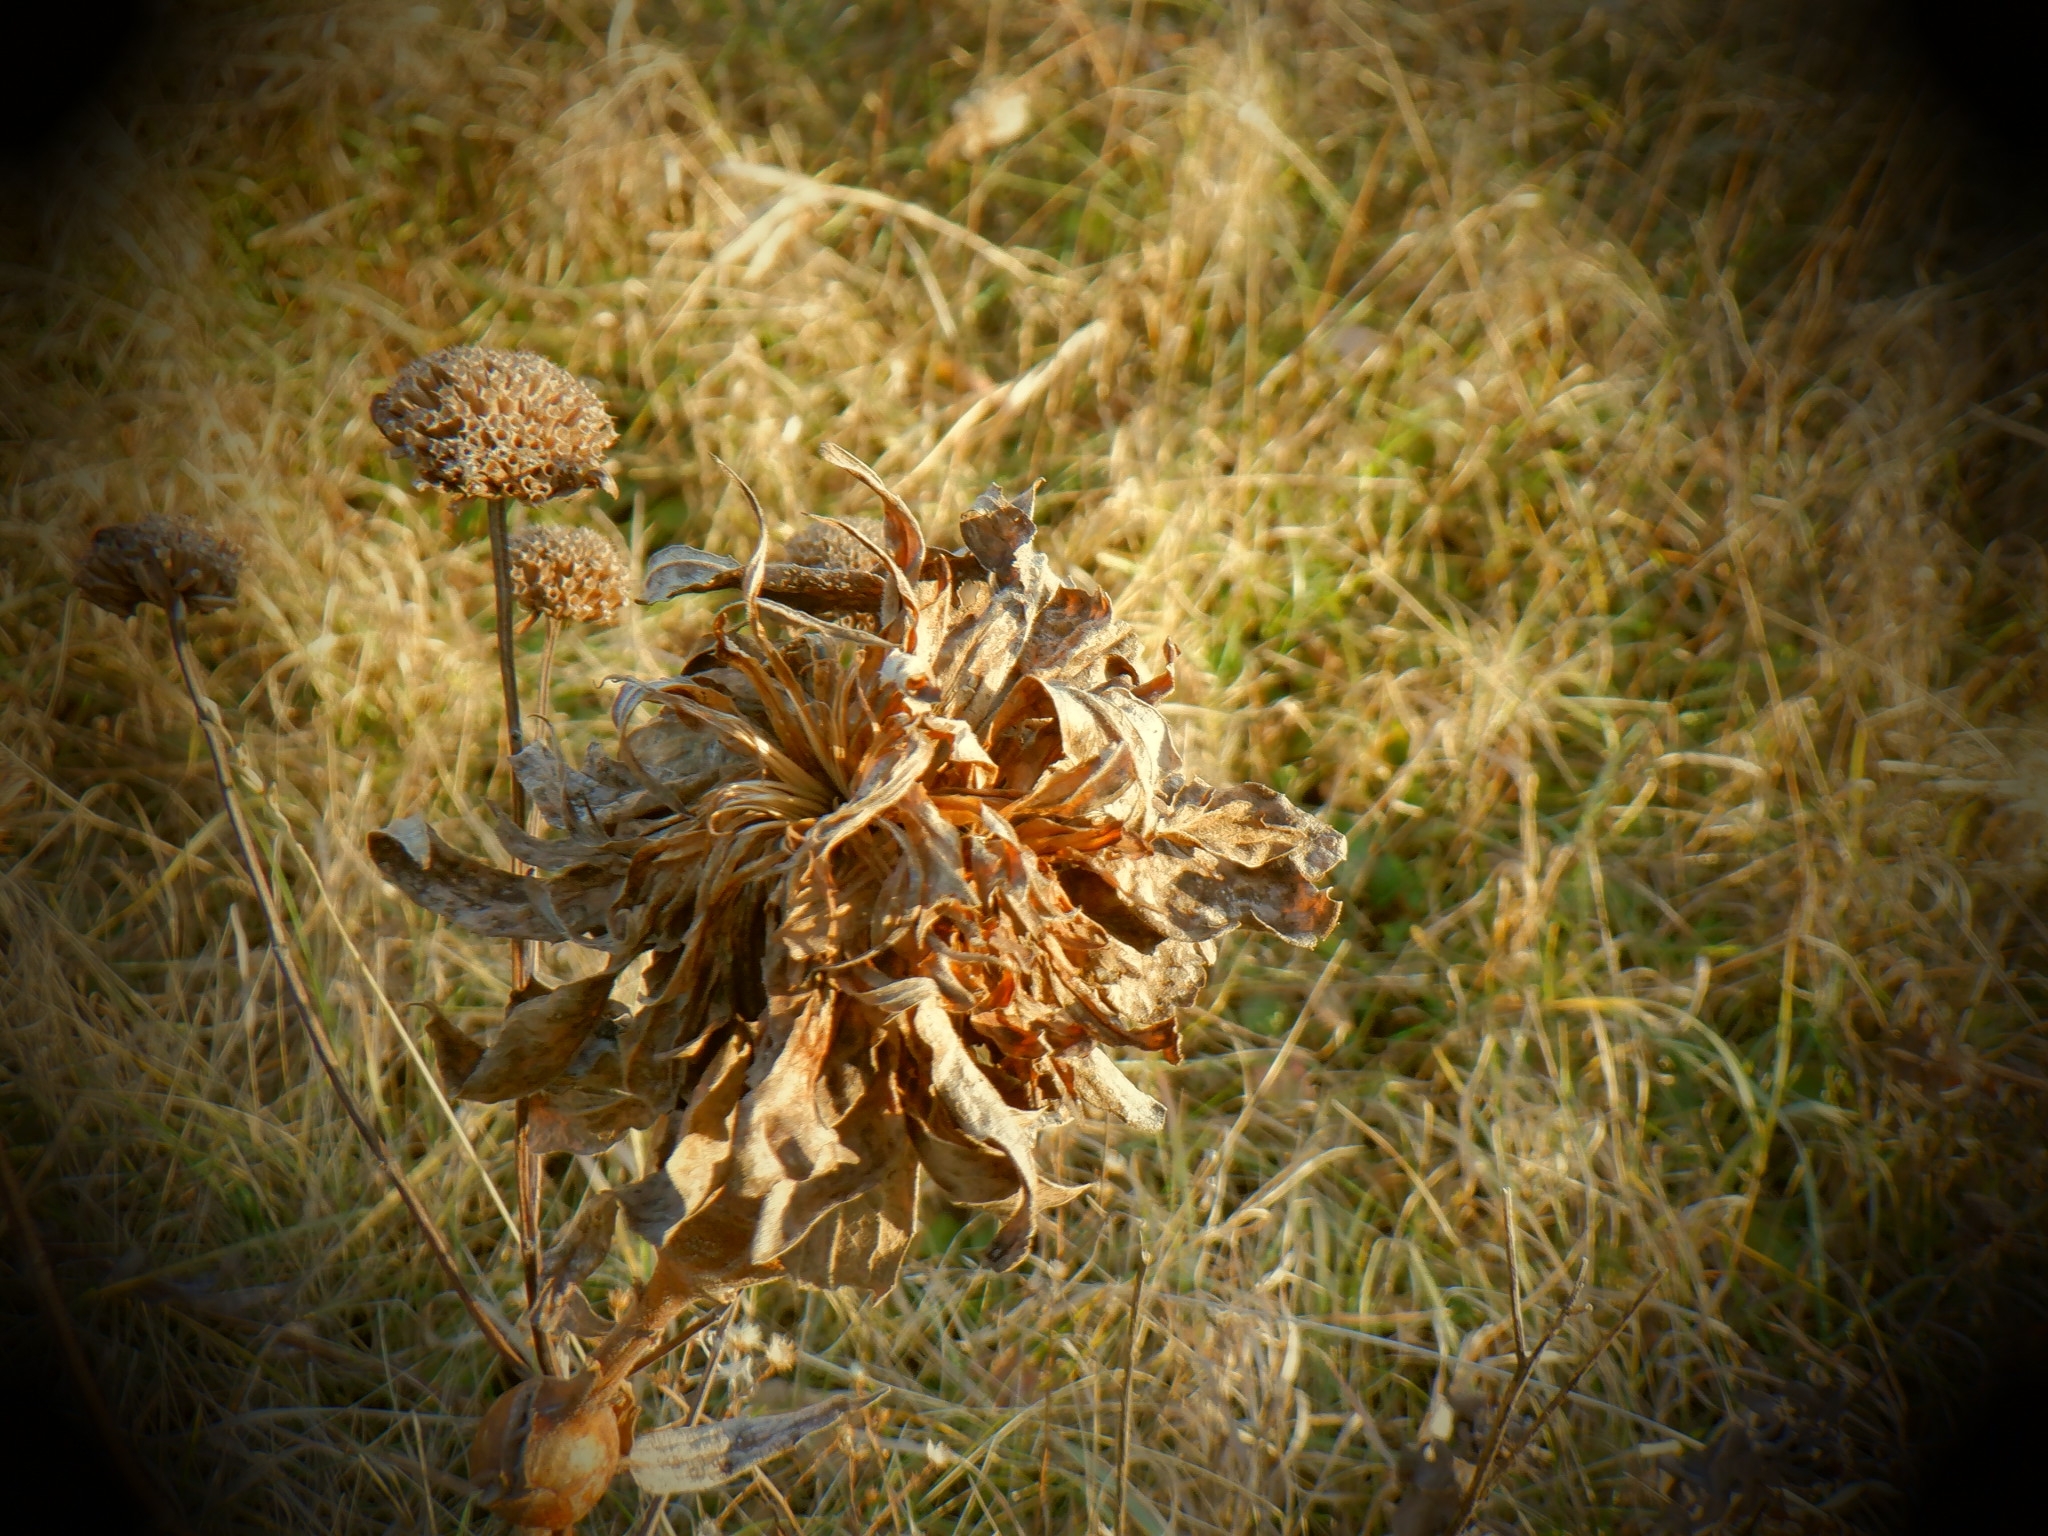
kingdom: Animalia
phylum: Arthropoda
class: Insecta
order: Diptera
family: Cecidomyiidae
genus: Rhopalomyia
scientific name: Rhopalomyia solidaginis
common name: Goldenrod bunch gall midge
